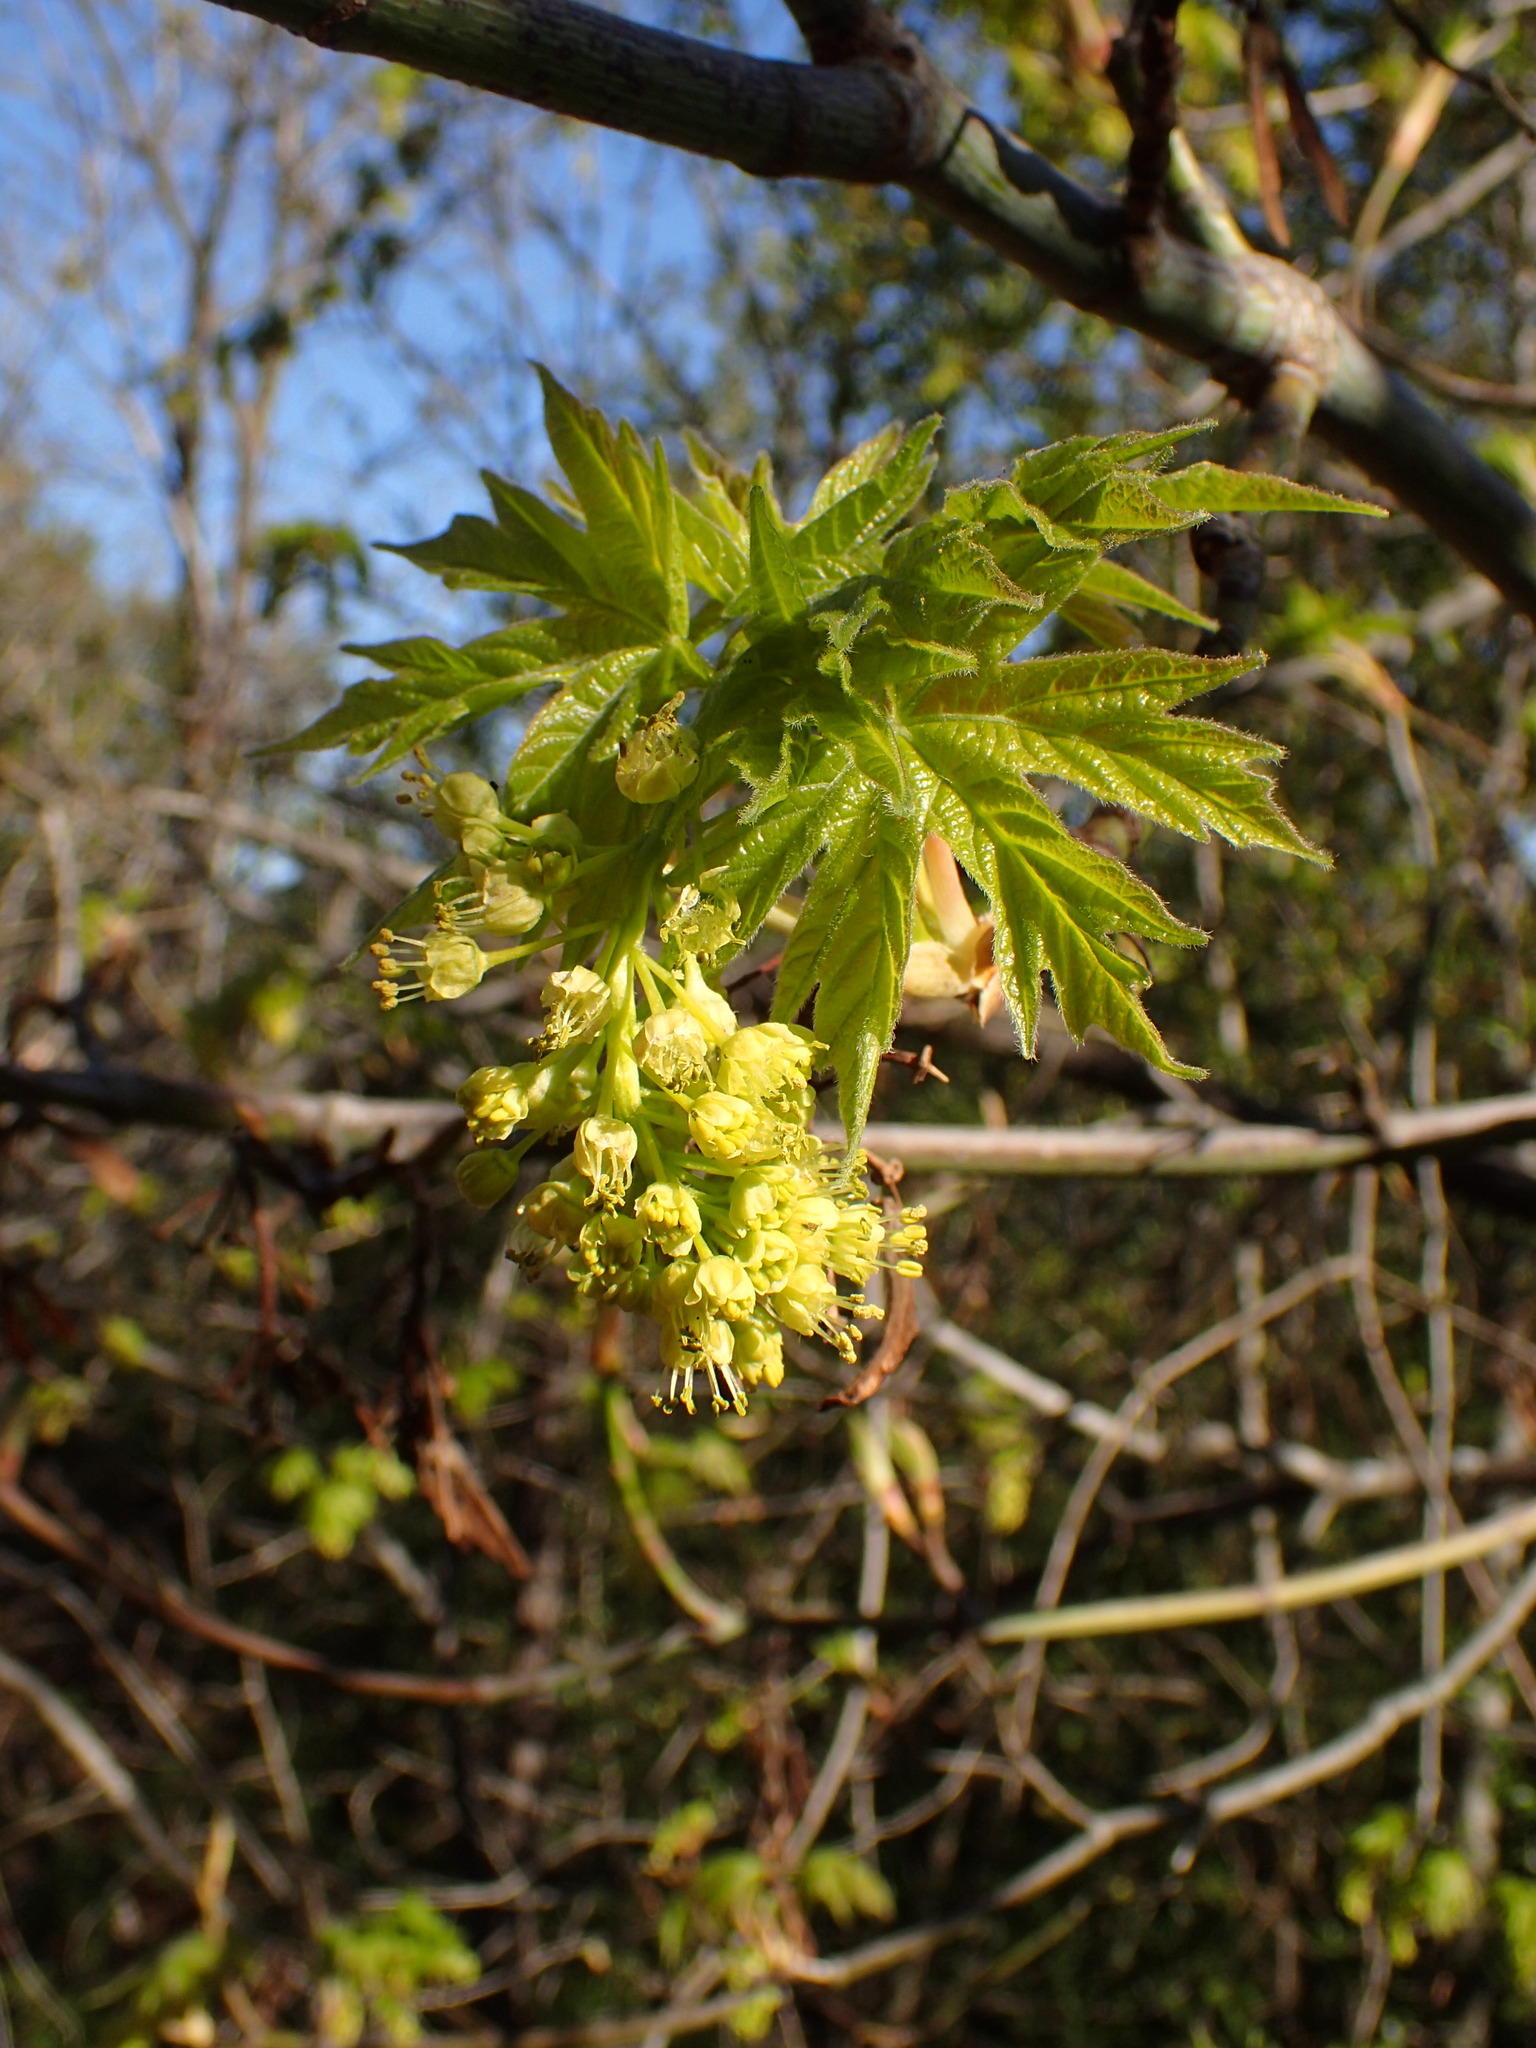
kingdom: Plantae
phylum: Tracheophyta
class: Magnoliopsida
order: Sapindales
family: Sapindaceae
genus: Acer
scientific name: Acer macrophyllum
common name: Oregon maple
